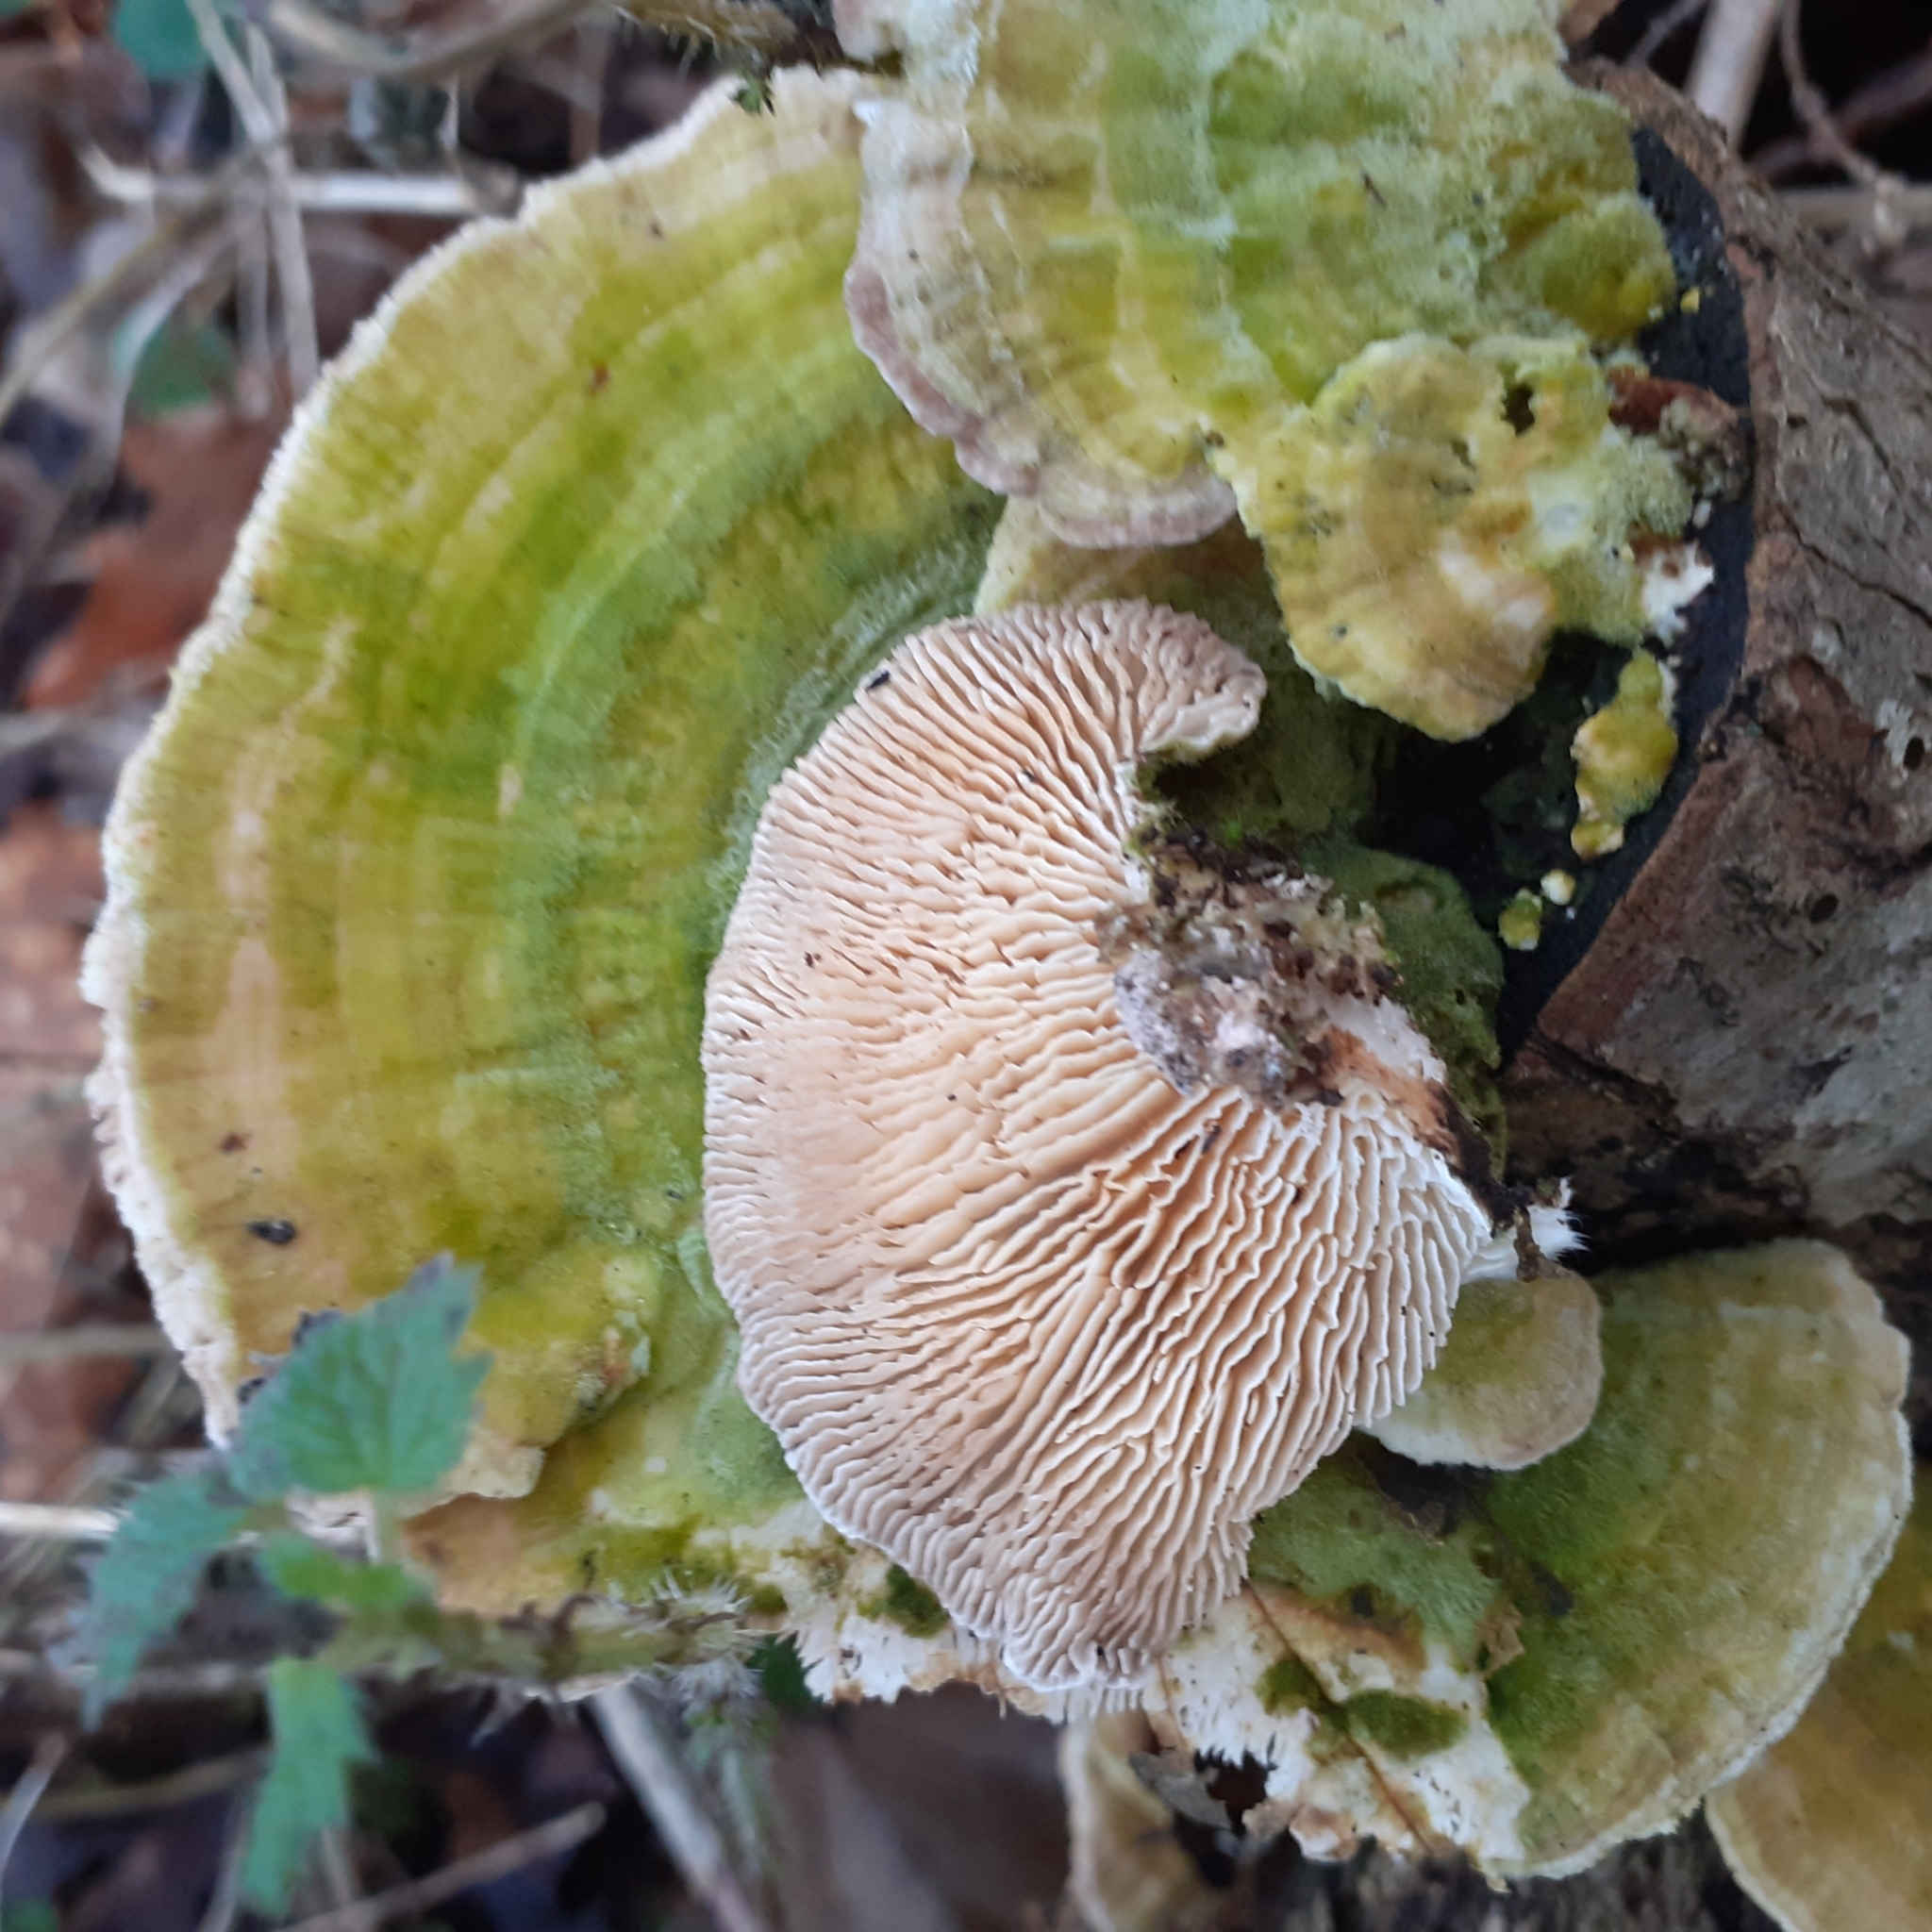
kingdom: Fungi
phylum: Basidiomycota
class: Agaricomycetes
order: Polyporales
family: Polyporaceae
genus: Lenzites
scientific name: Lenzites betulinus
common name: Birch mazegill
